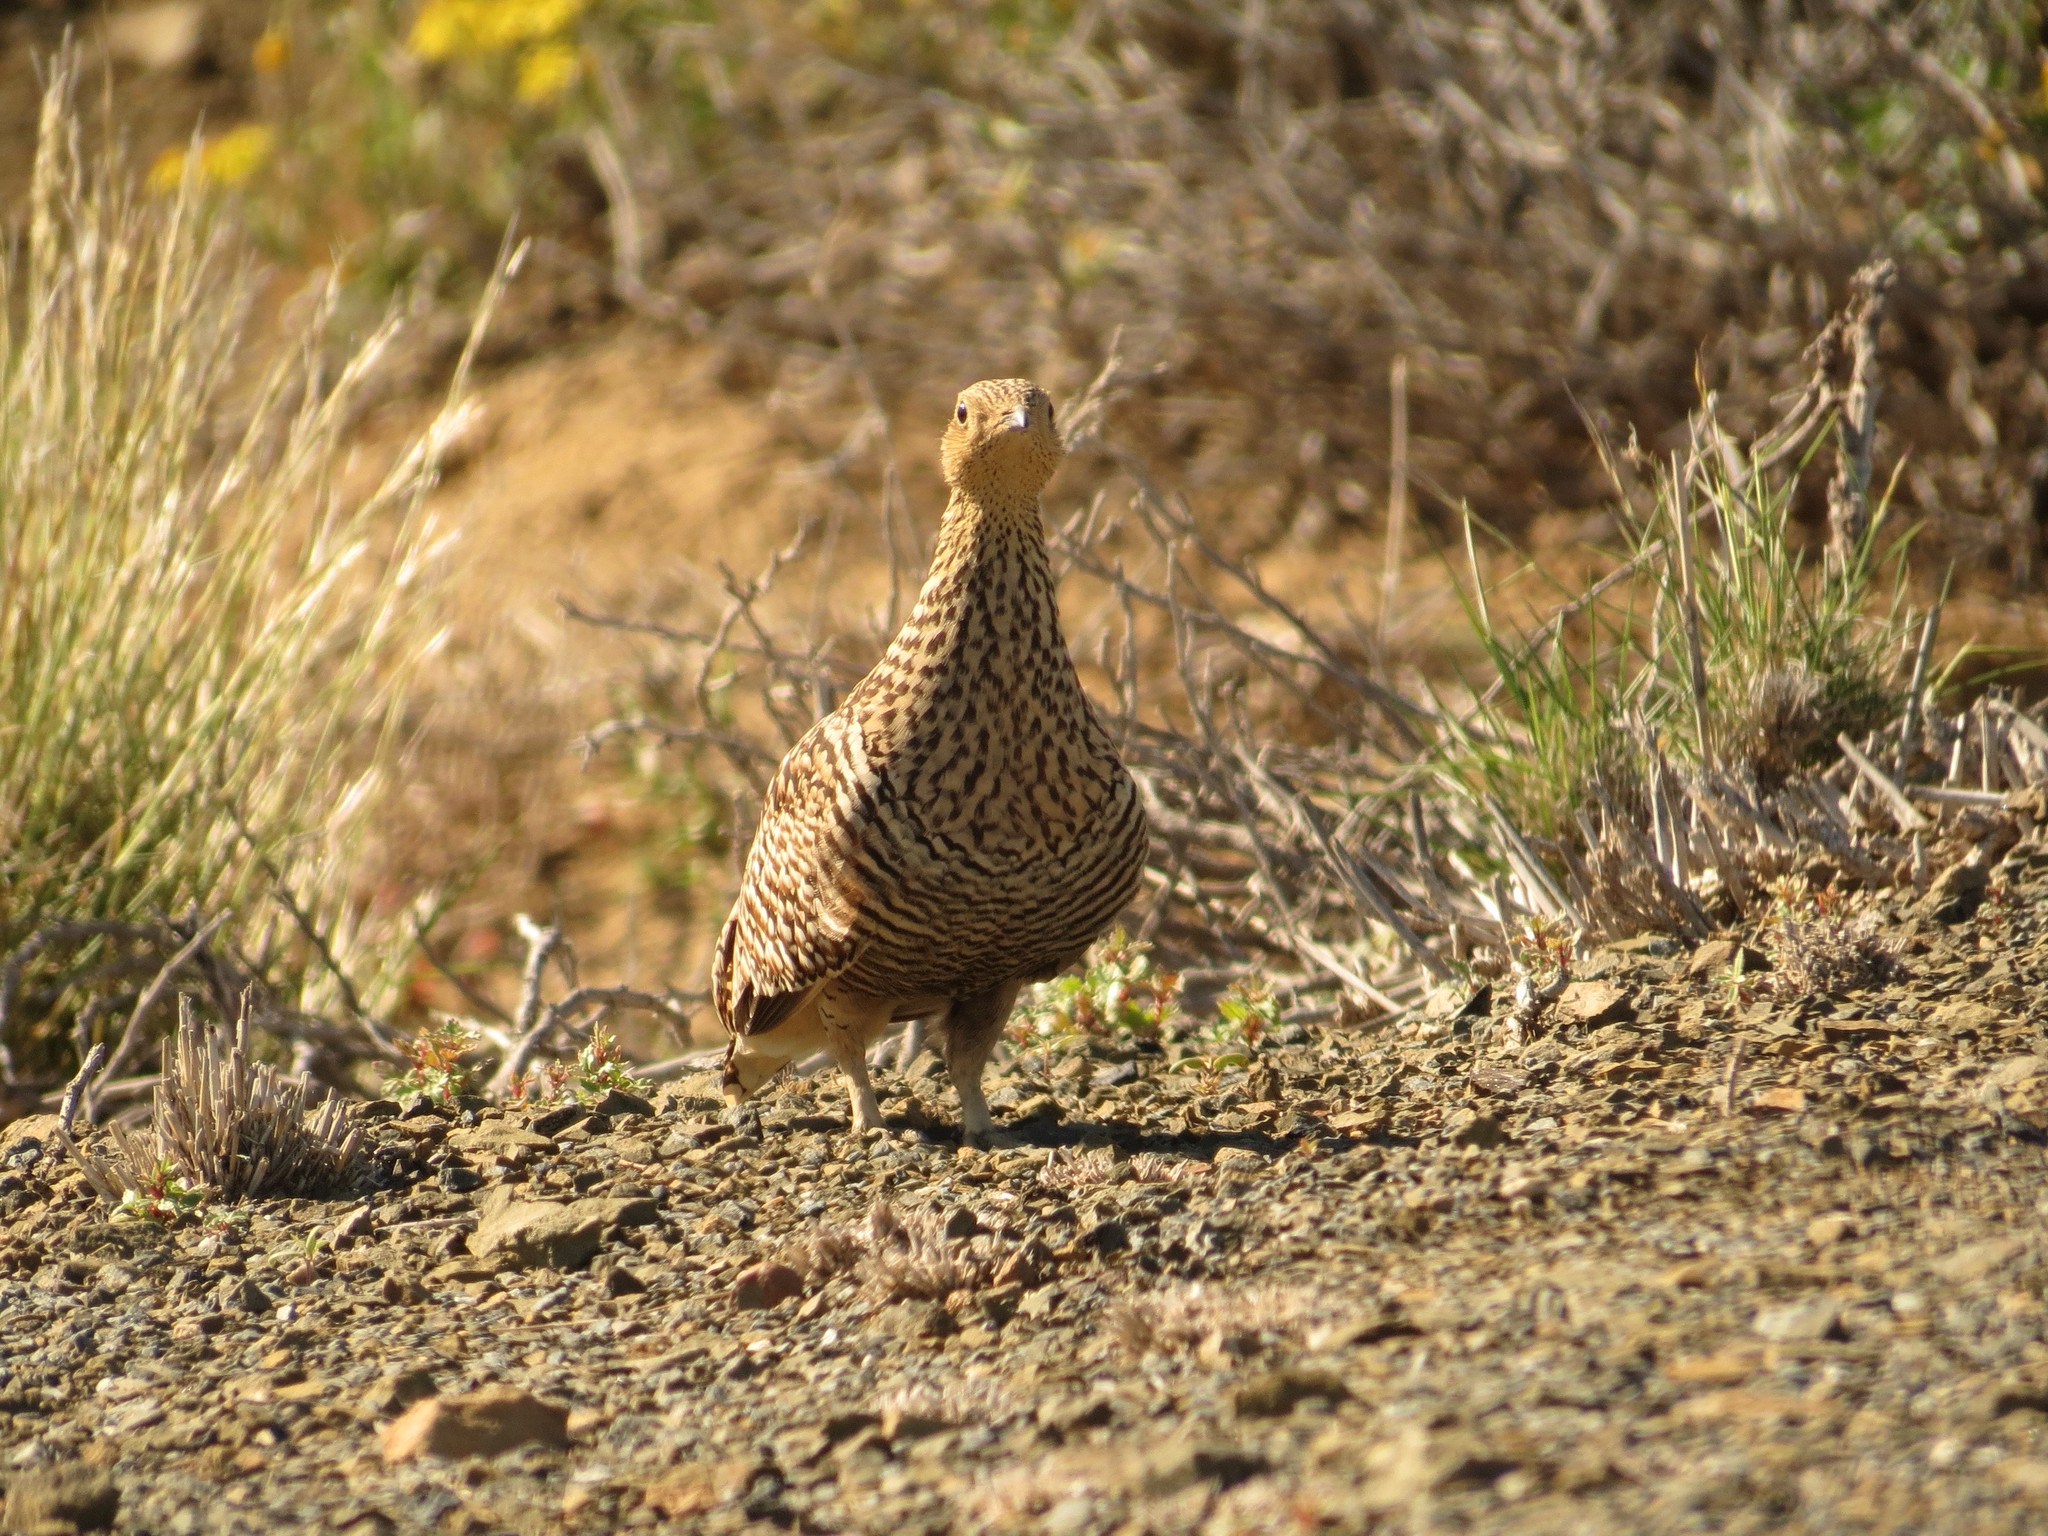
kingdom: Animalia
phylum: Chordata
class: Aves
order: Pteroclidiformes
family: Pteroclididae
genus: Pterocles
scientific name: Pterocles namaqua
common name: Namaqua sandgrouse
